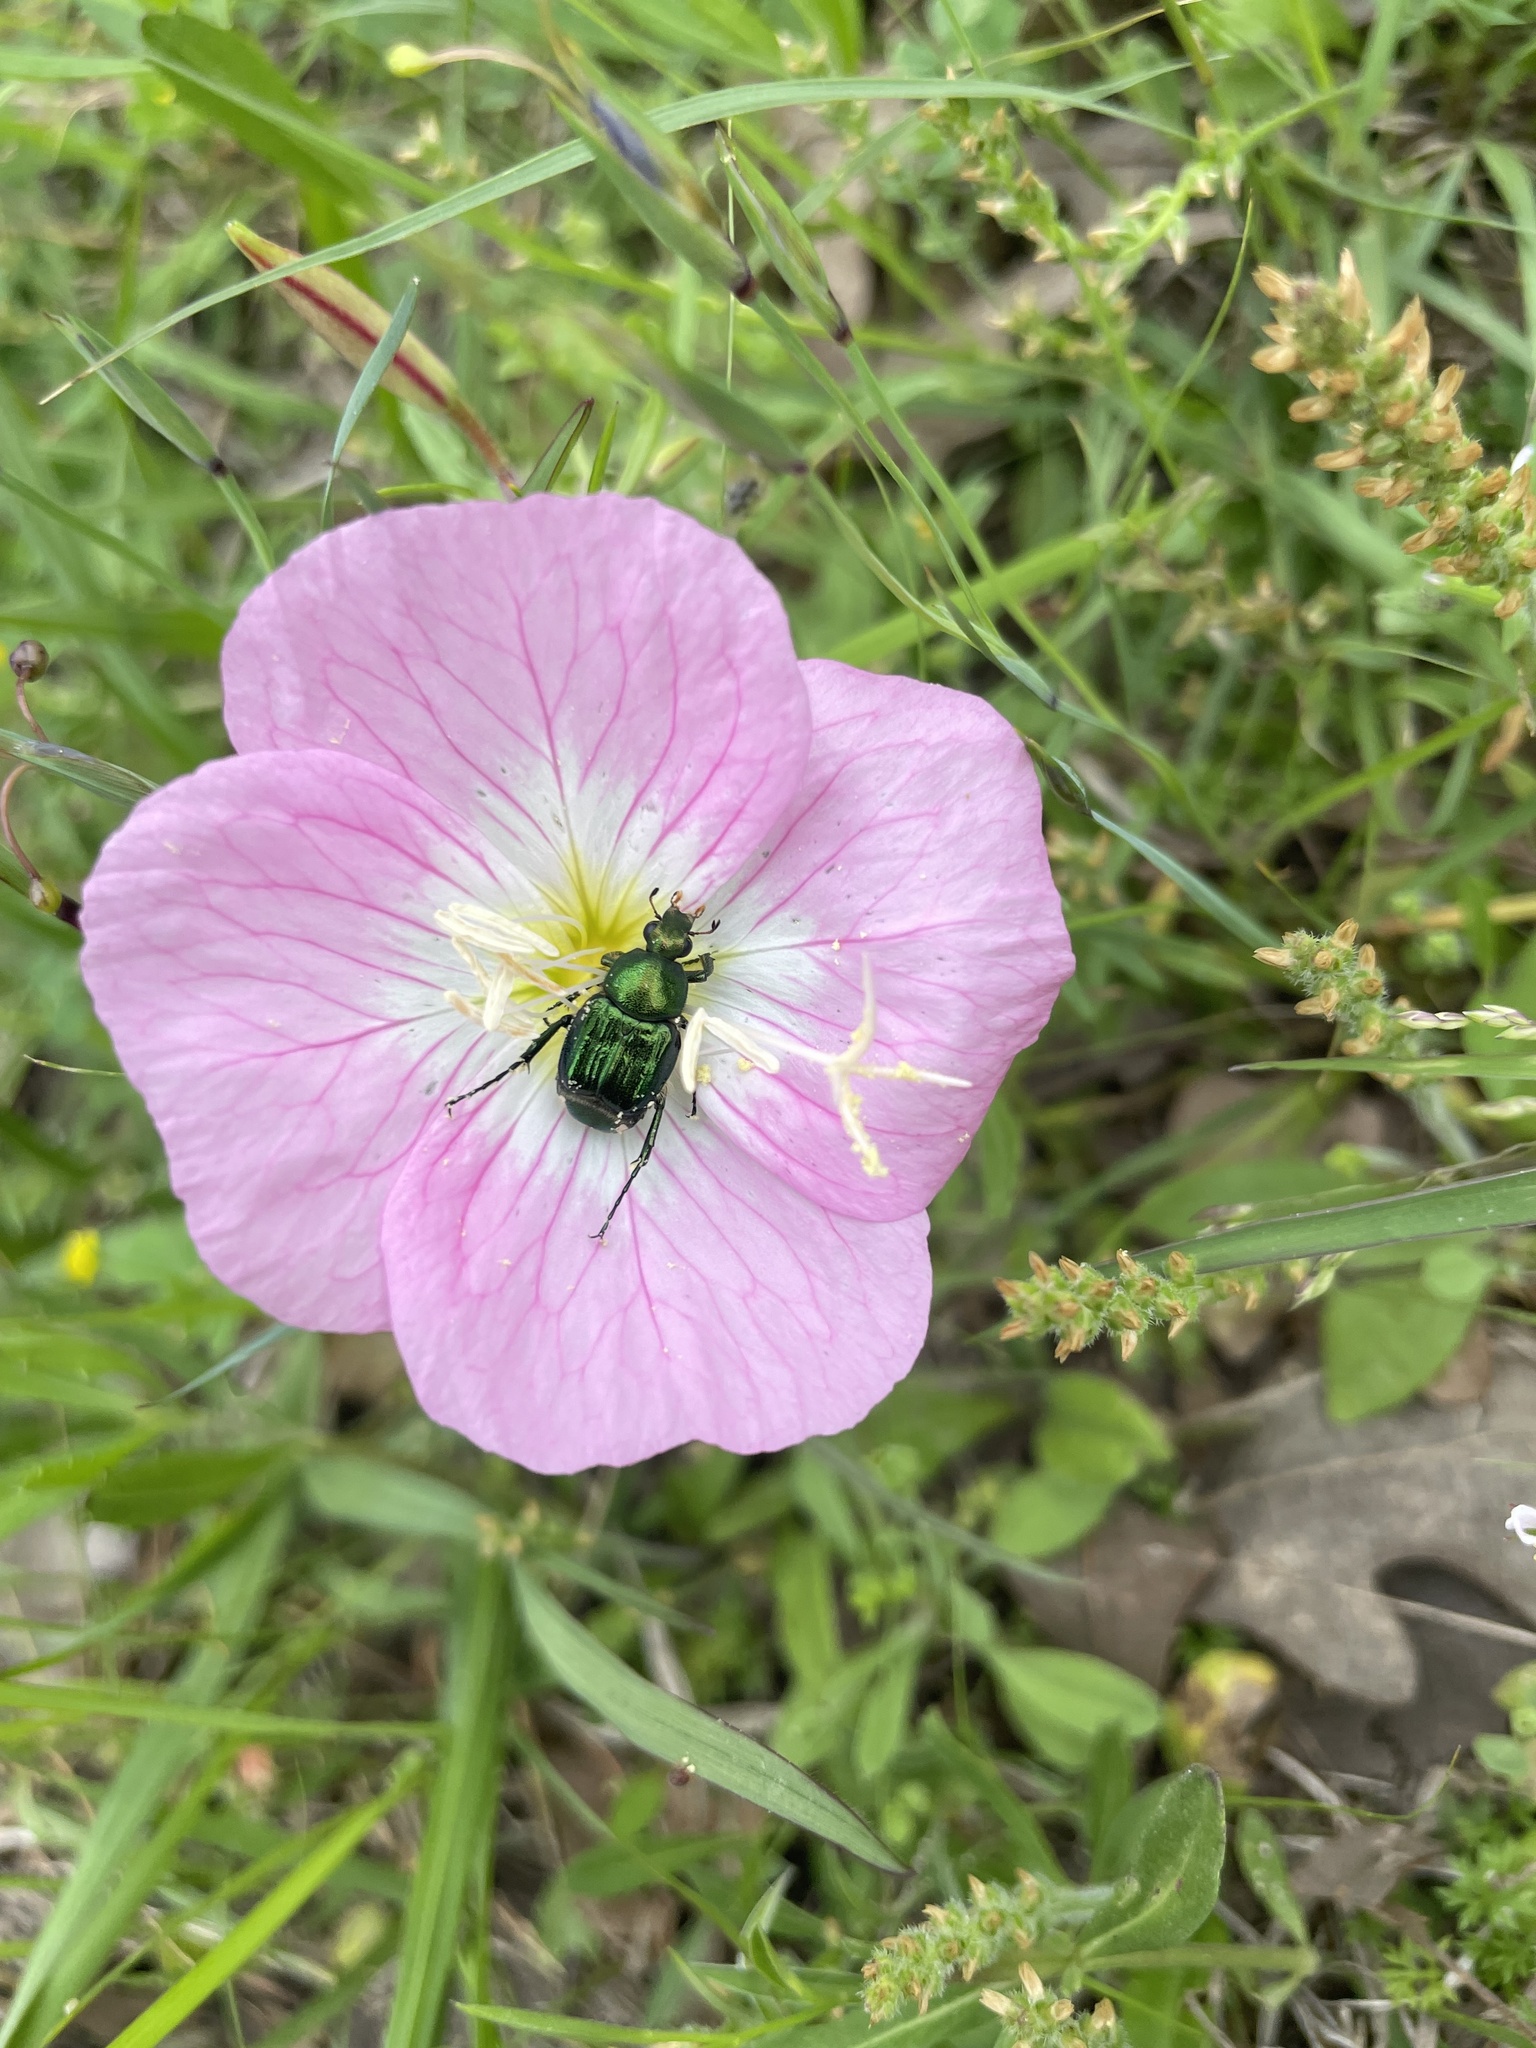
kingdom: Animalia
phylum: Arthropoda
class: Insecta
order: Coleoptera
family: Scarabaeidae
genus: Trichiotinus
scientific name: Trichiotinus lunulatus
